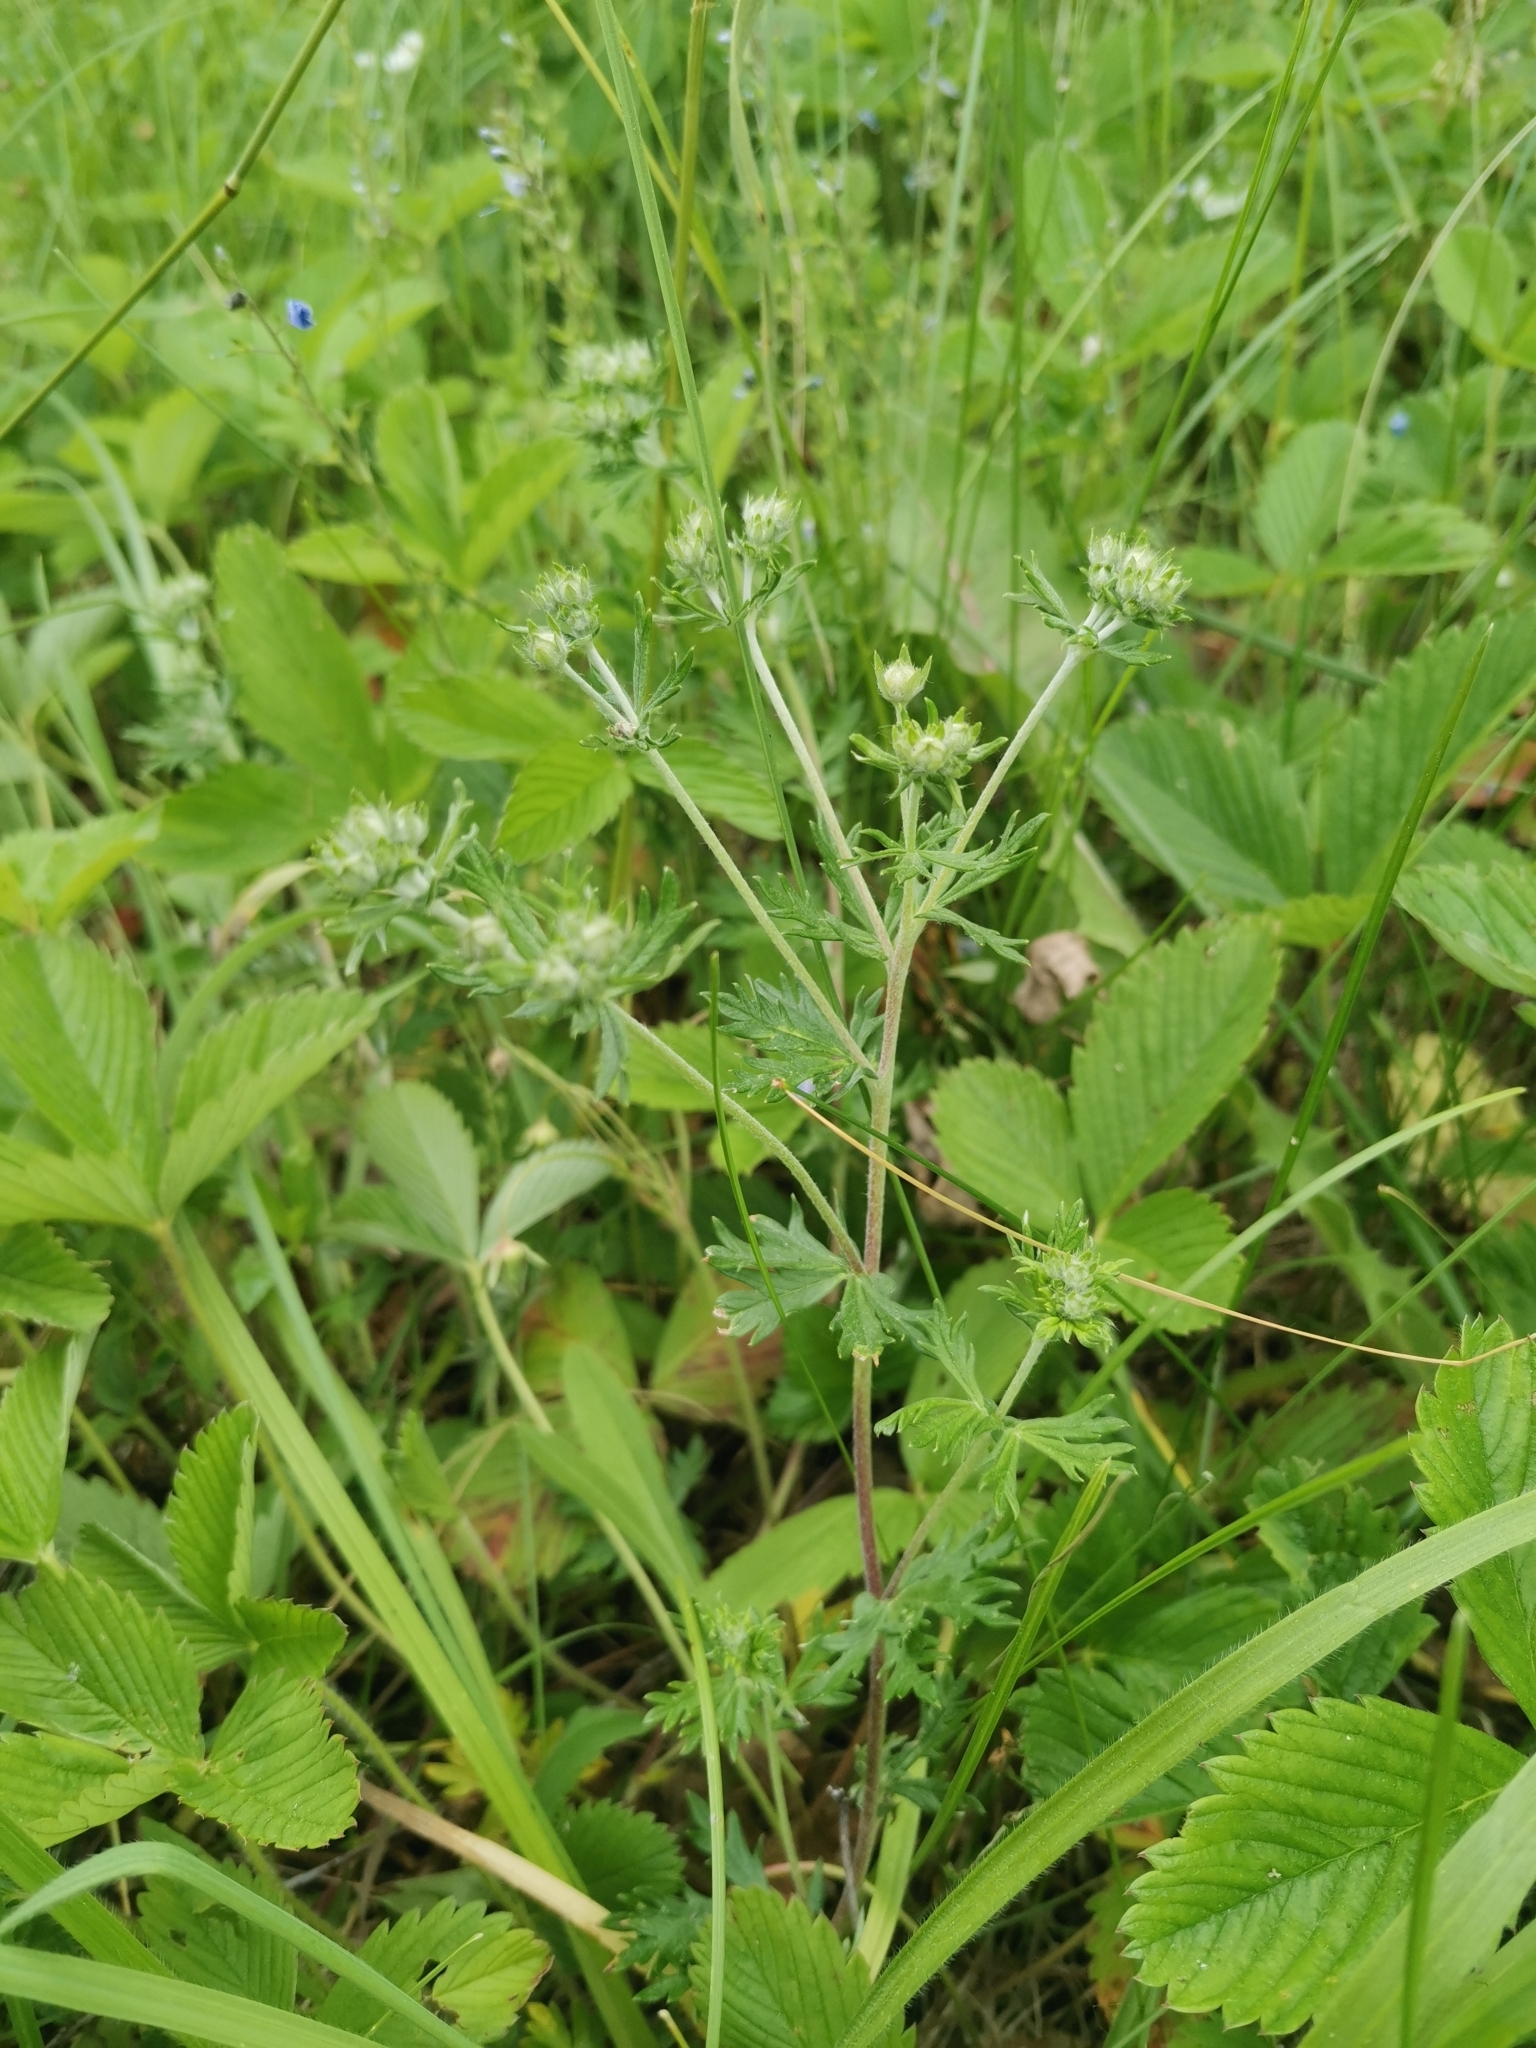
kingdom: Plantae
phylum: Tracheophyta
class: Magnoliopsida
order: Rosales
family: Rosaceae
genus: Potentilla
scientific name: Potentilla argentea
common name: Hoary cinquefoil
